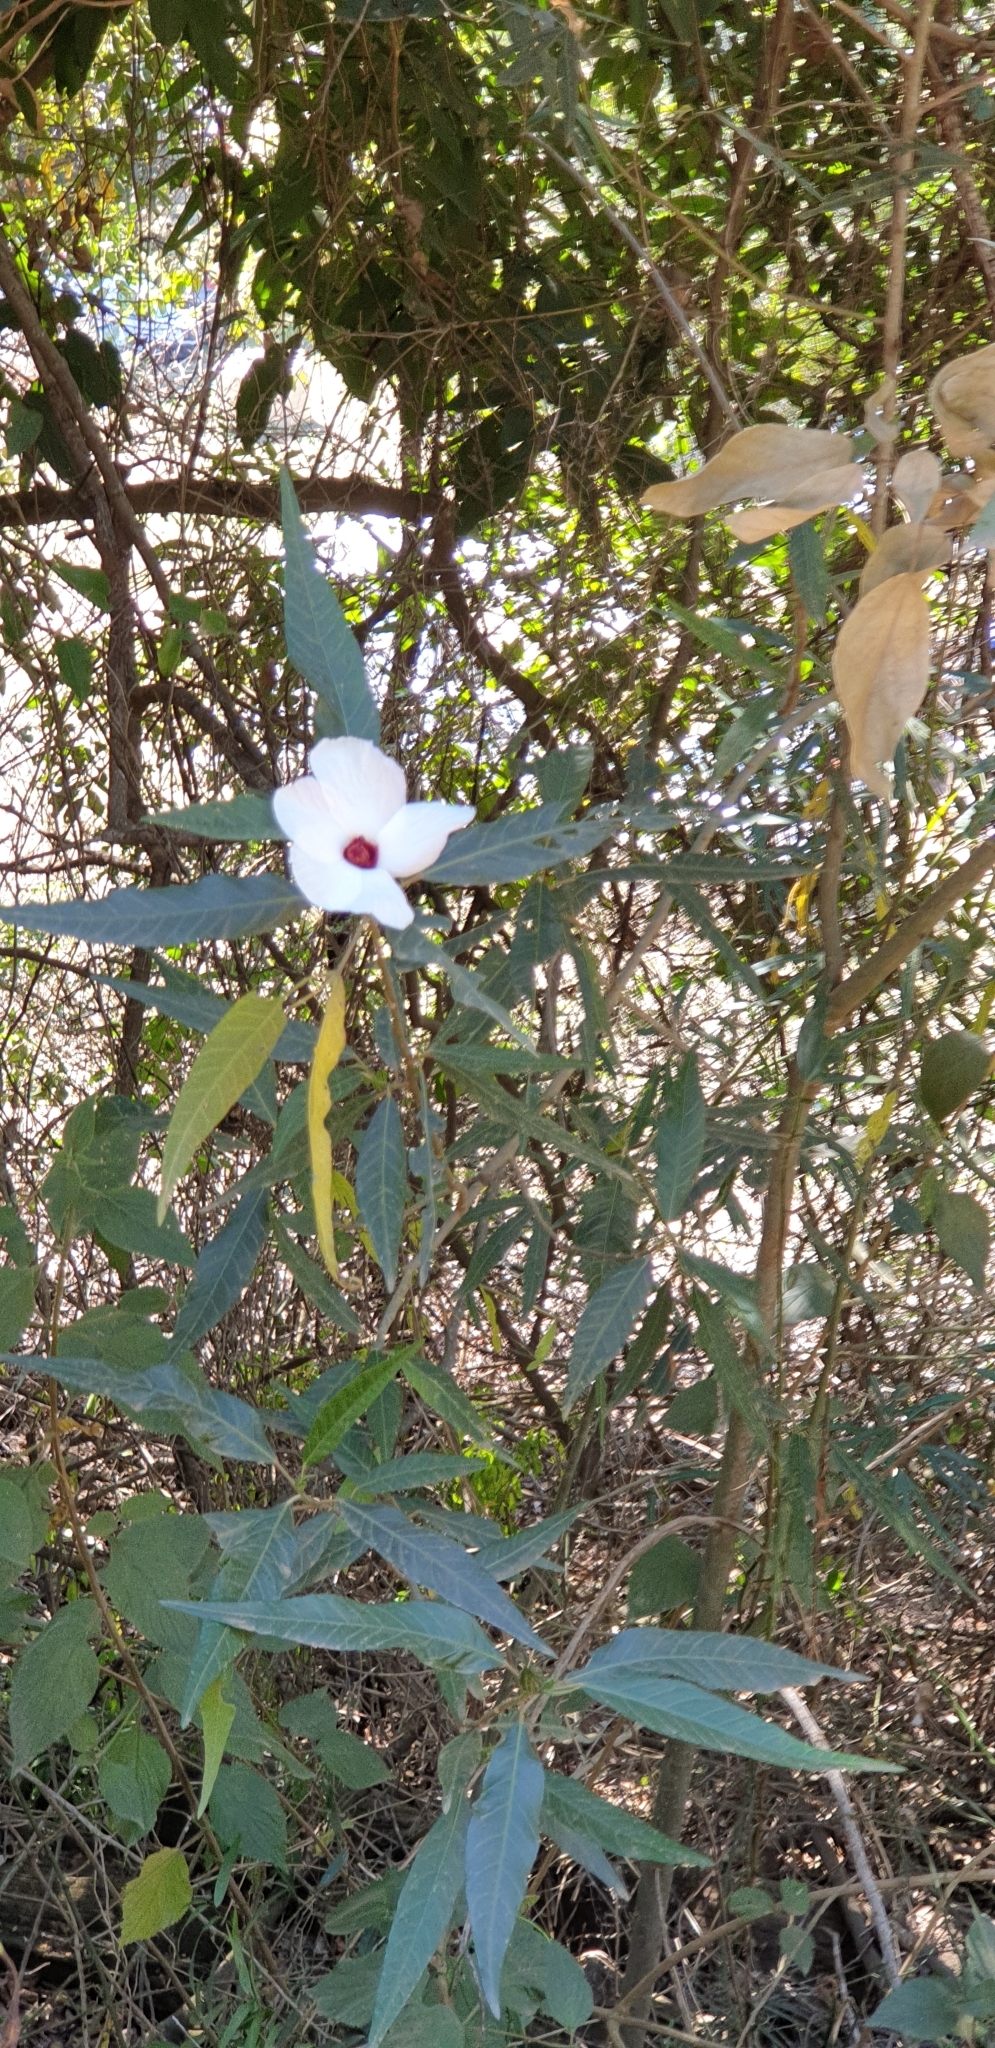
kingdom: Plantae
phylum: Tracheophyta
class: Magnoliopsida
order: Malvales
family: Malvaceae
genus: Hibiscus
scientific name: Hibiscus heterophyllus
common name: Queensland-sorrel
